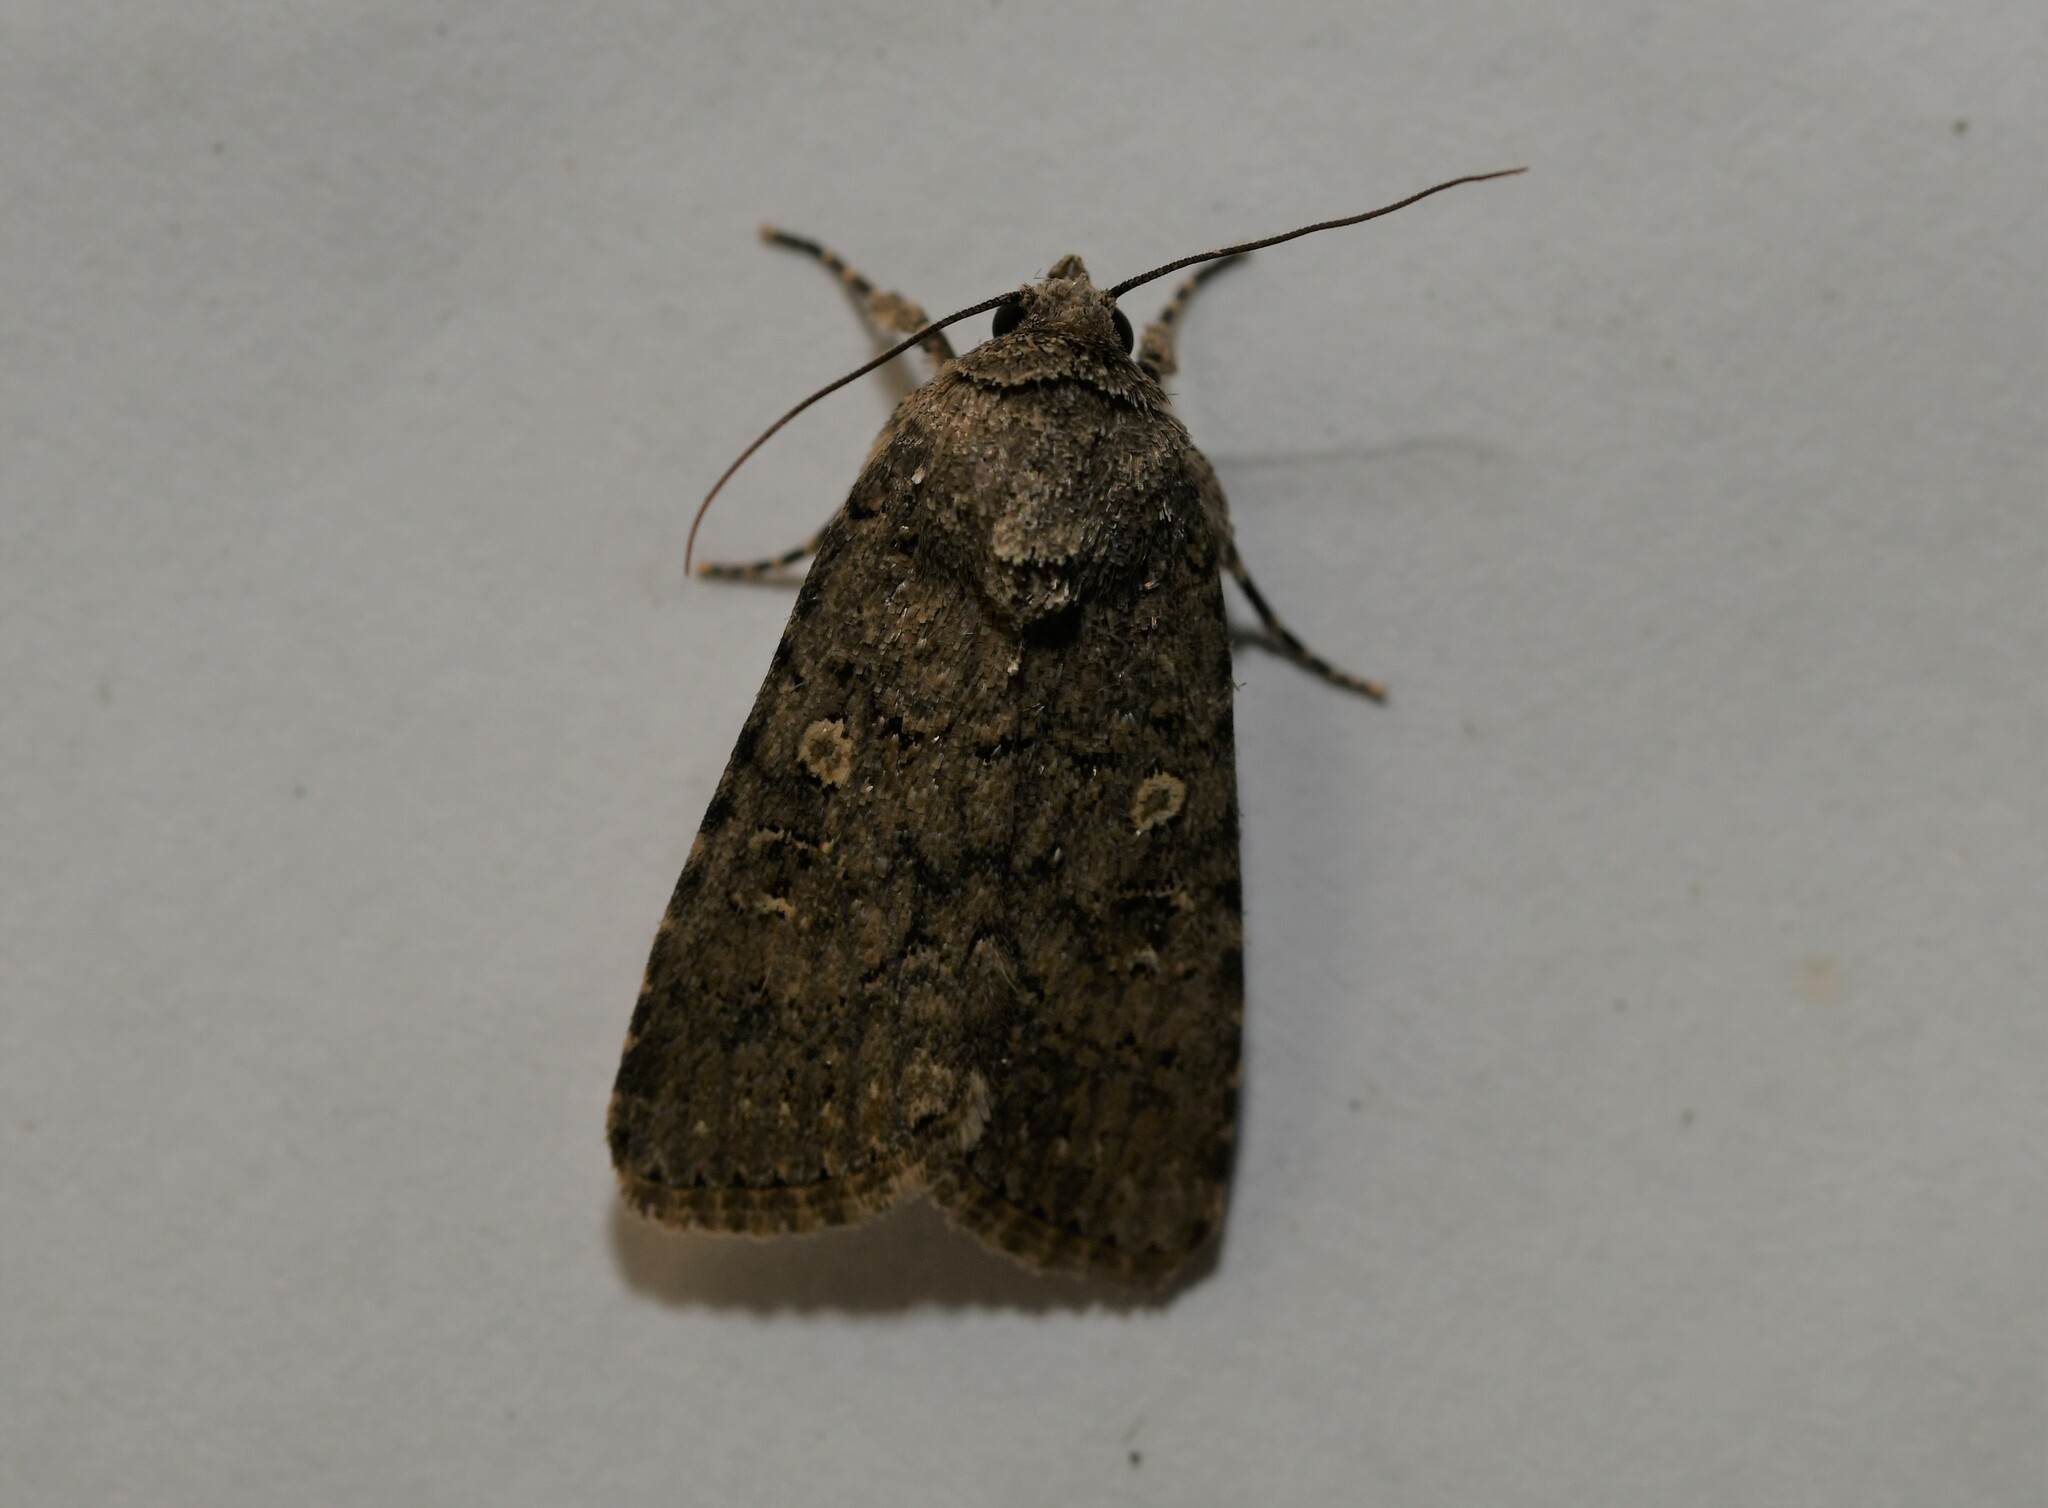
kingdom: Animalia
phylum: Arthropoda
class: Insecta
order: Lepidoptera
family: Noctuidae
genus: Spodoptera
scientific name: Spodoptera cilium
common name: Dark mottled willow
